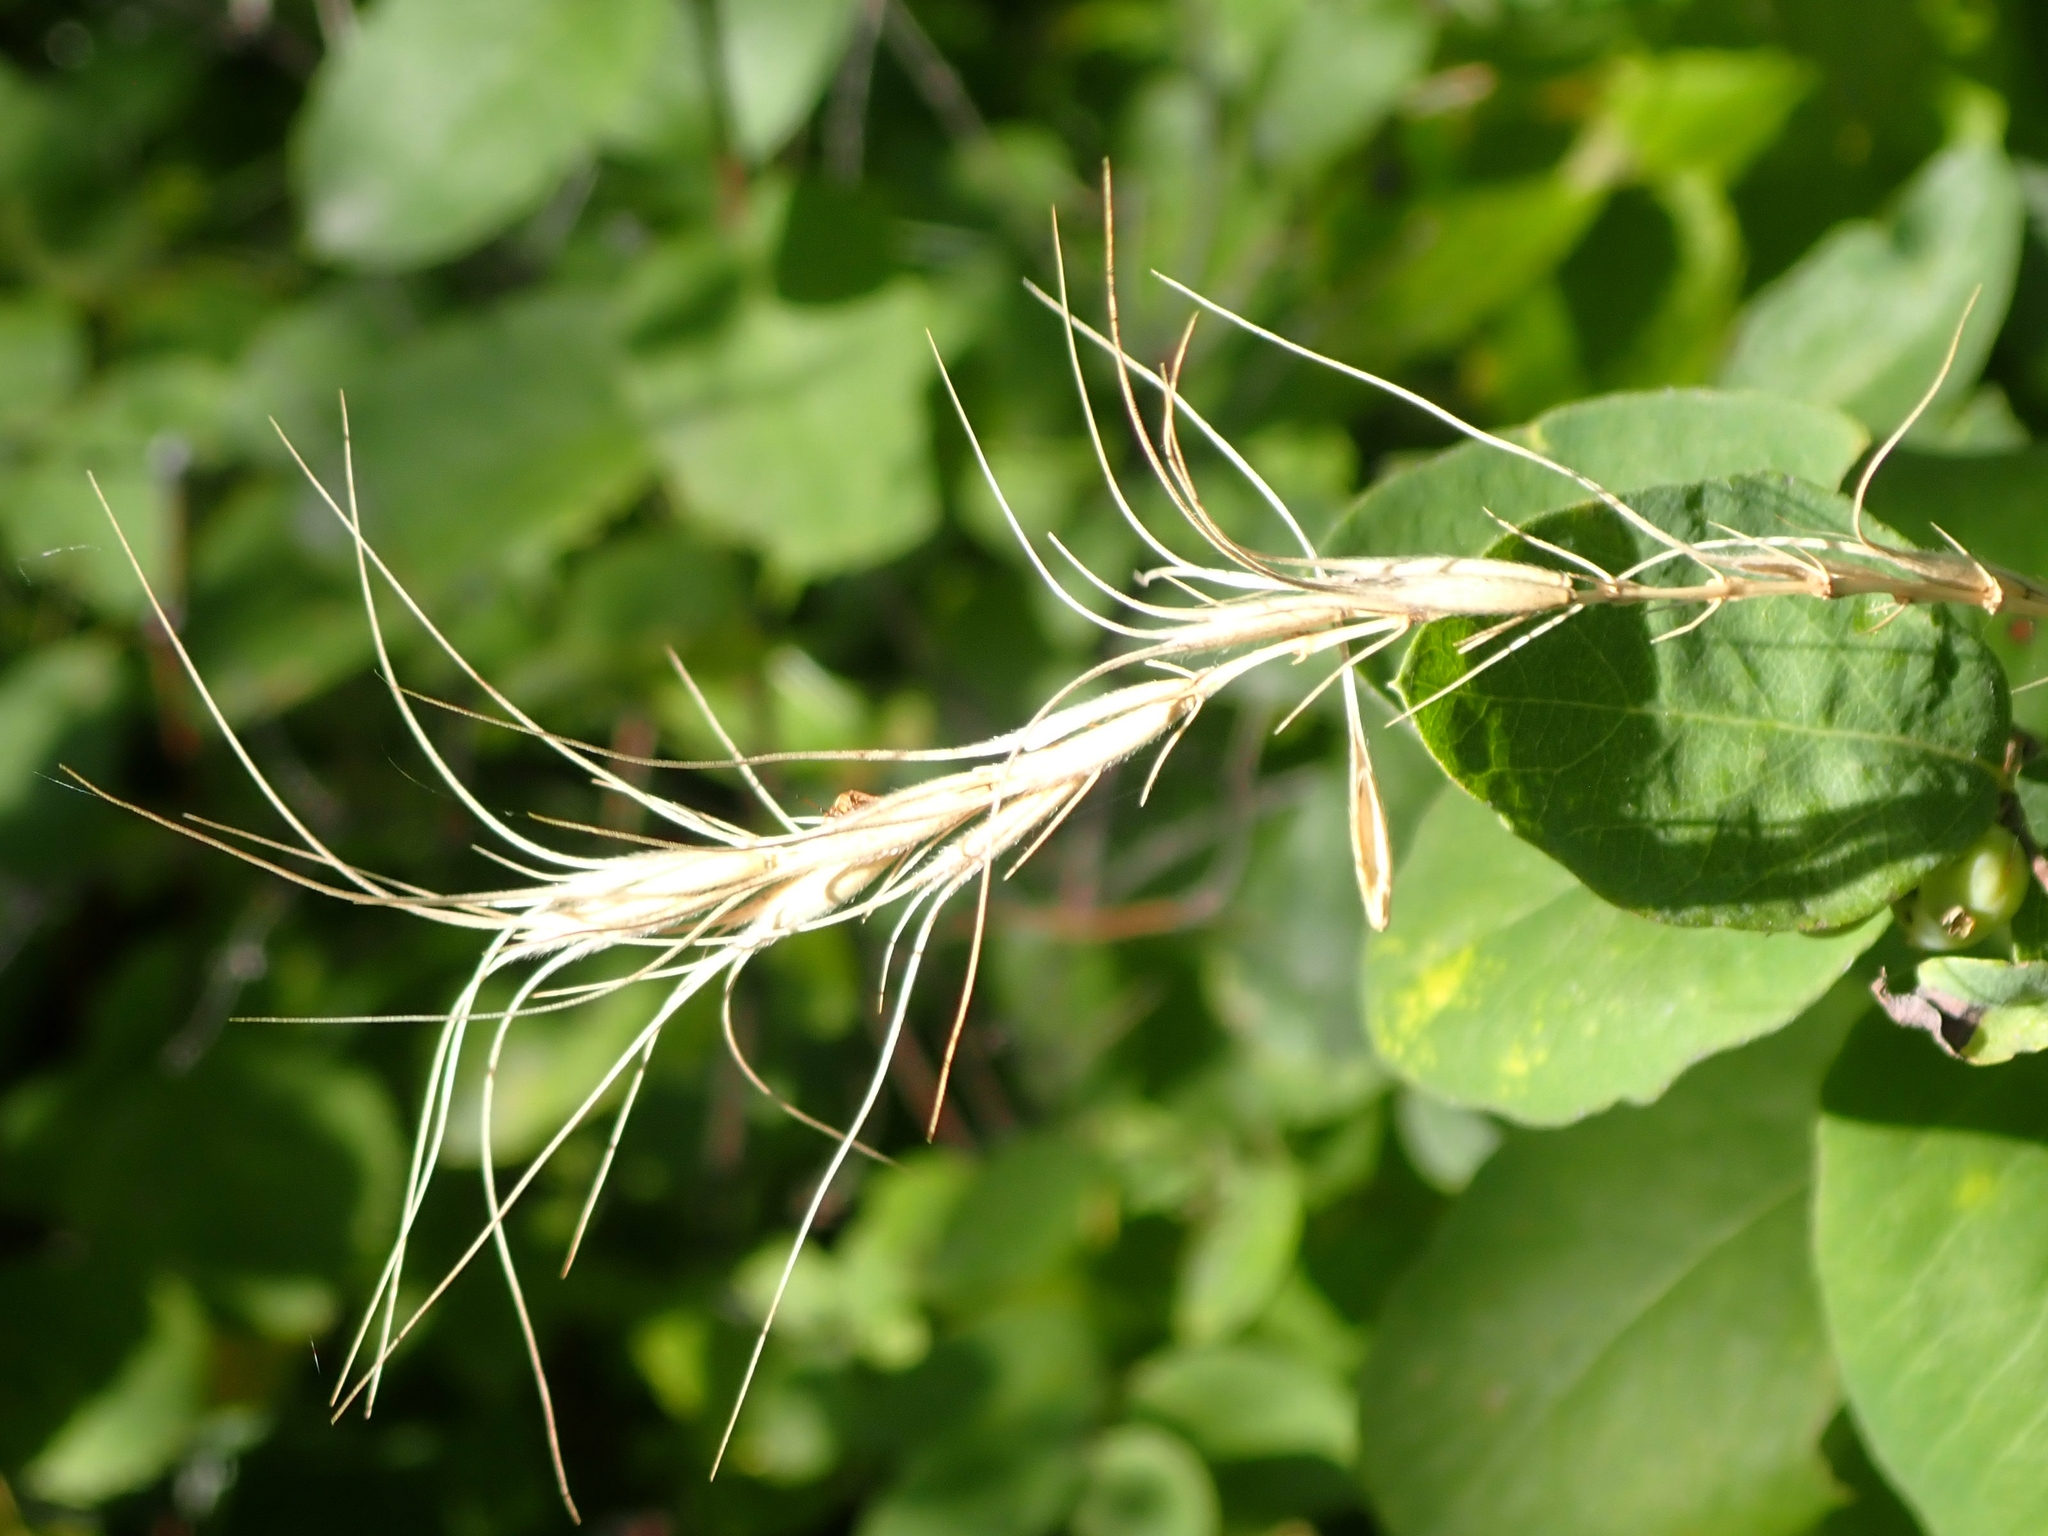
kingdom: Plantae
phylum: Tracheophyta
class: Liliopsida
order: Poales
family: Poaceae
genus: Elymus
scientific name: Elymus canadensis
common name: Canada wild rye
